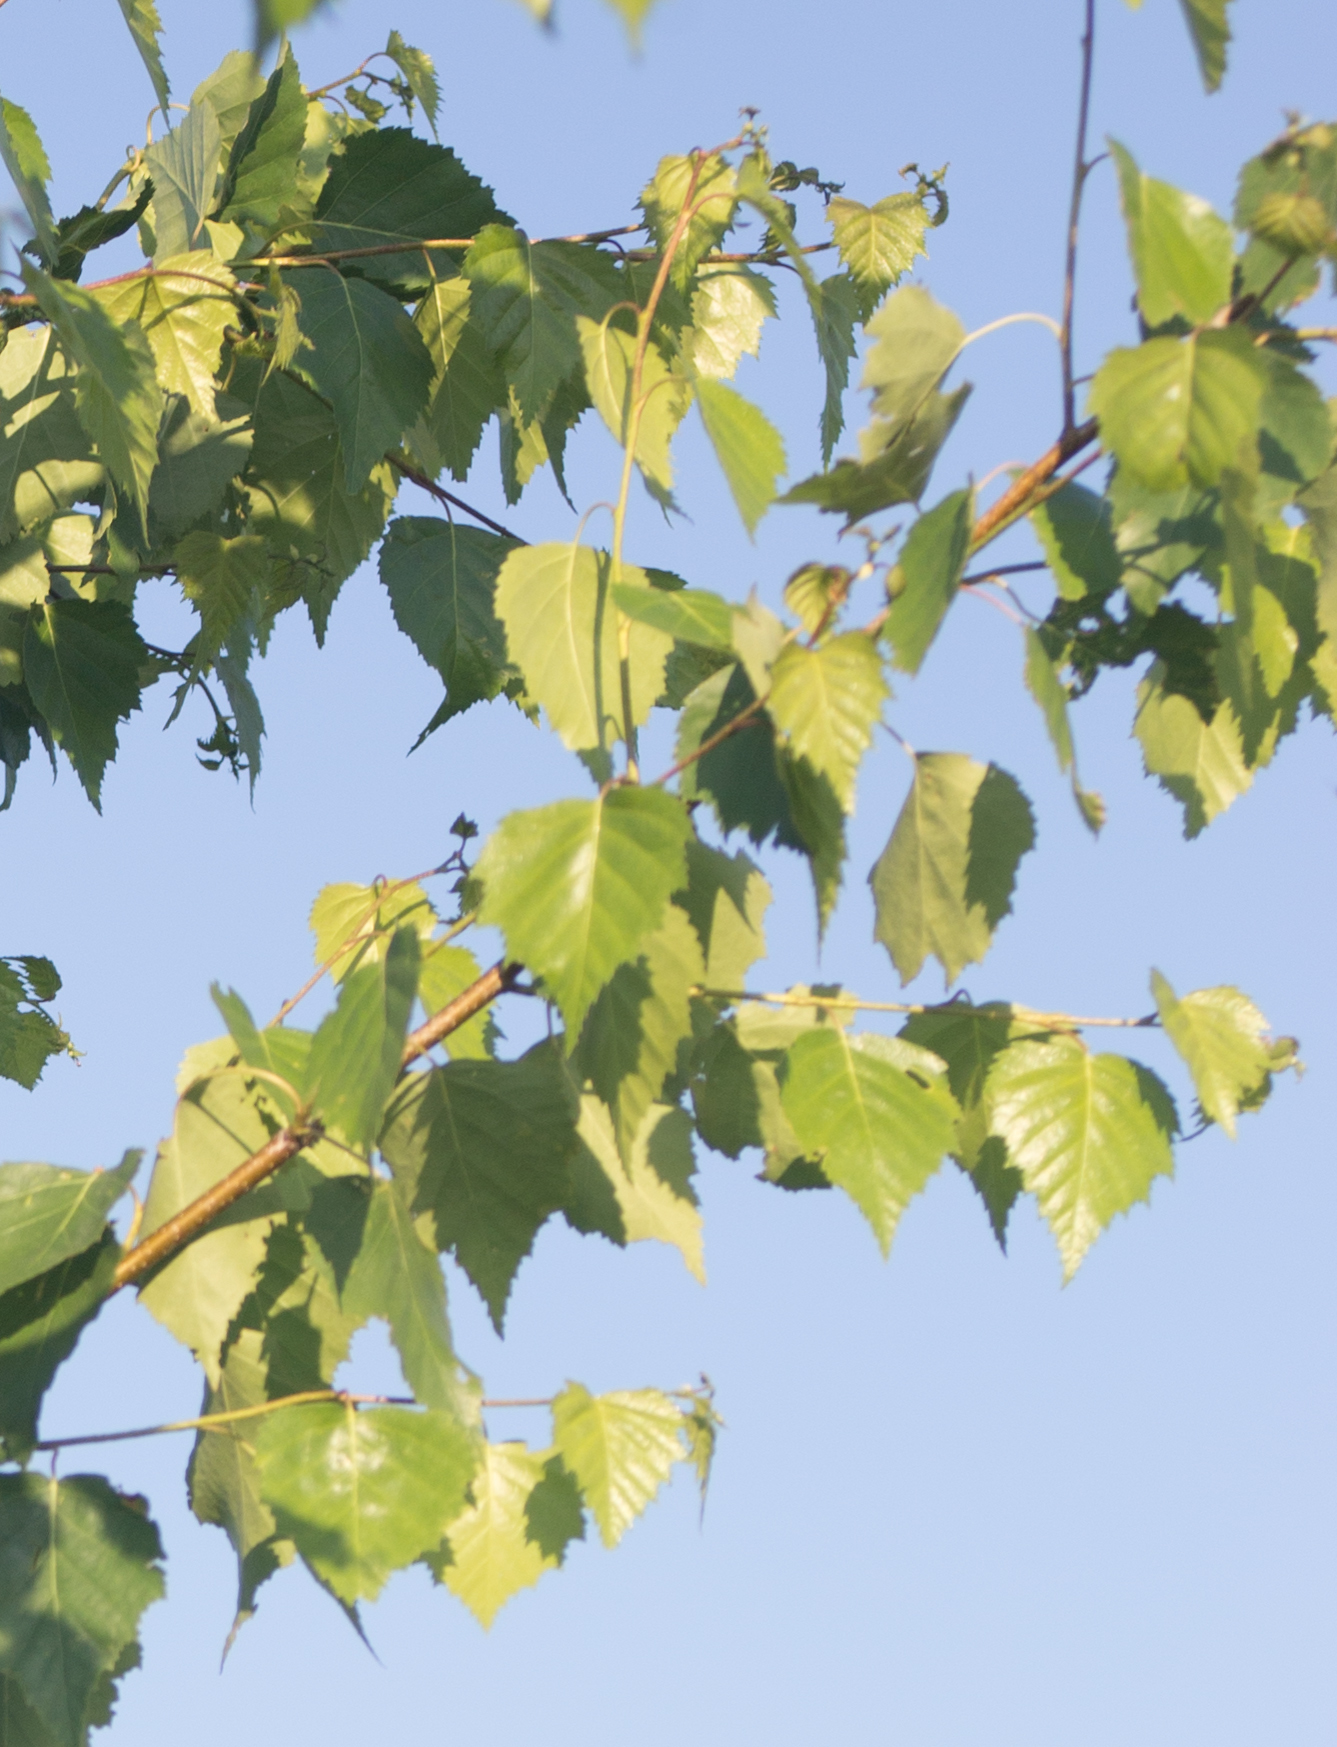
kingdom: Plantae
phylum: Tracheophyta
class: Magnoliopsida
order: Fagales
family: Betulaceae
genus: Betula
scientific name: Betula pendula
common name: Silver birch
